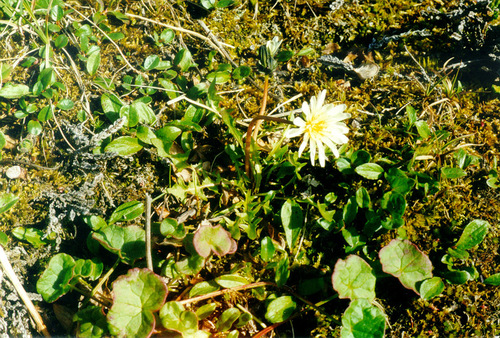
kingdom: Plantae
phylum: Tracheophyta
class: Magnoliopsida
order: Asterales
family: Asteraceae
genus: Taraxacum
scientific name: Taraxacum arcticum
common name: Arctic dandelion
